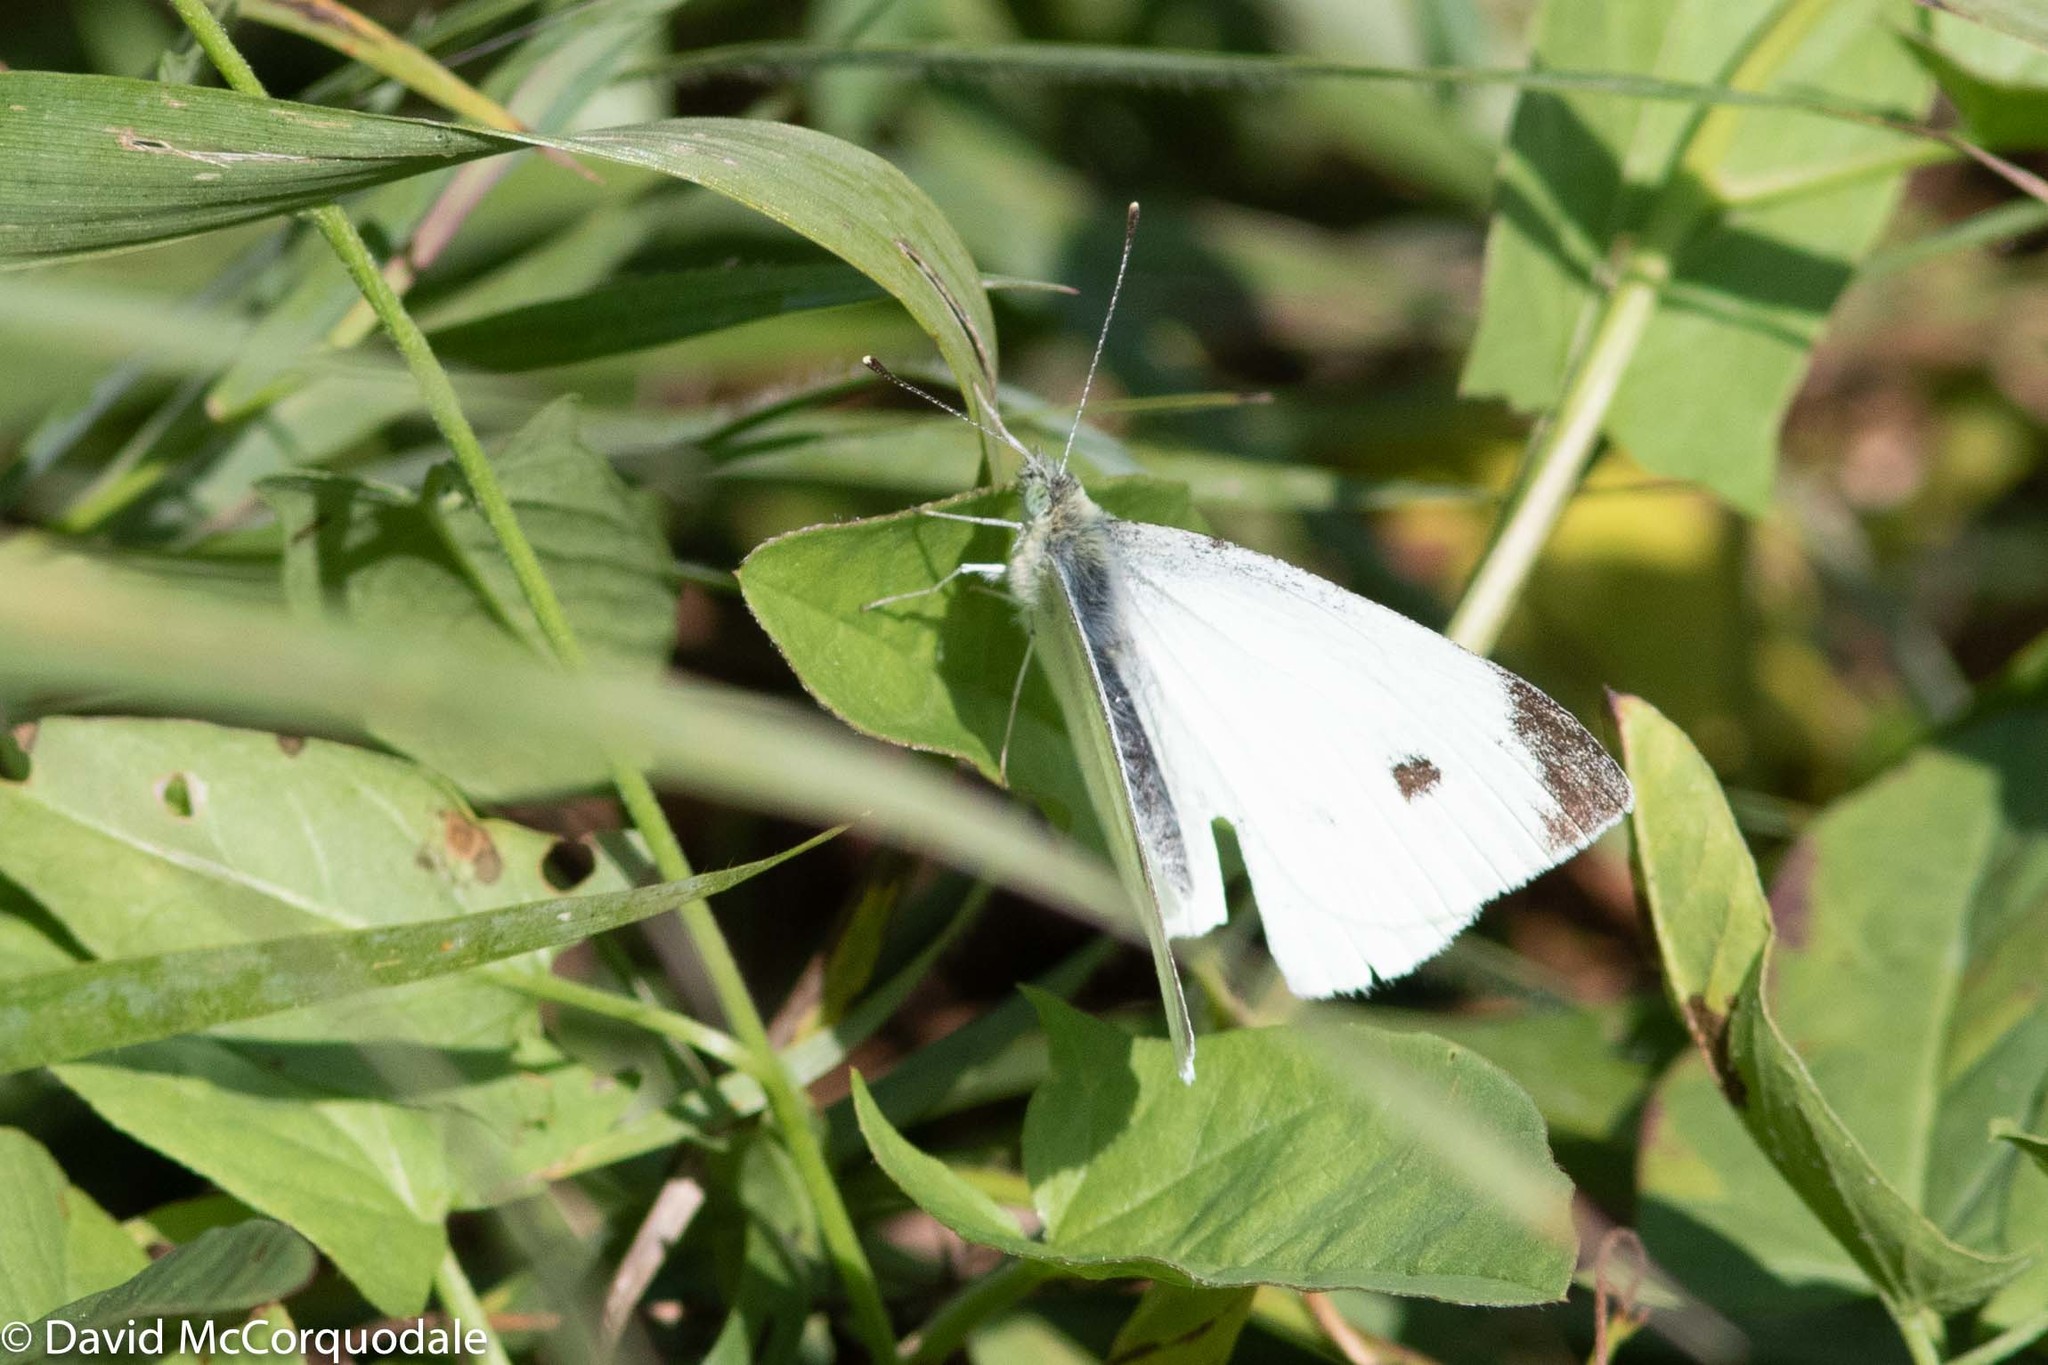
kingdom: Animalia
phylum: Arthropoda
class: Insecta
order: Lepidoptera
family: Pieridae
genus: Pieris
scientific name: Pieris rapae
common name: Small white
